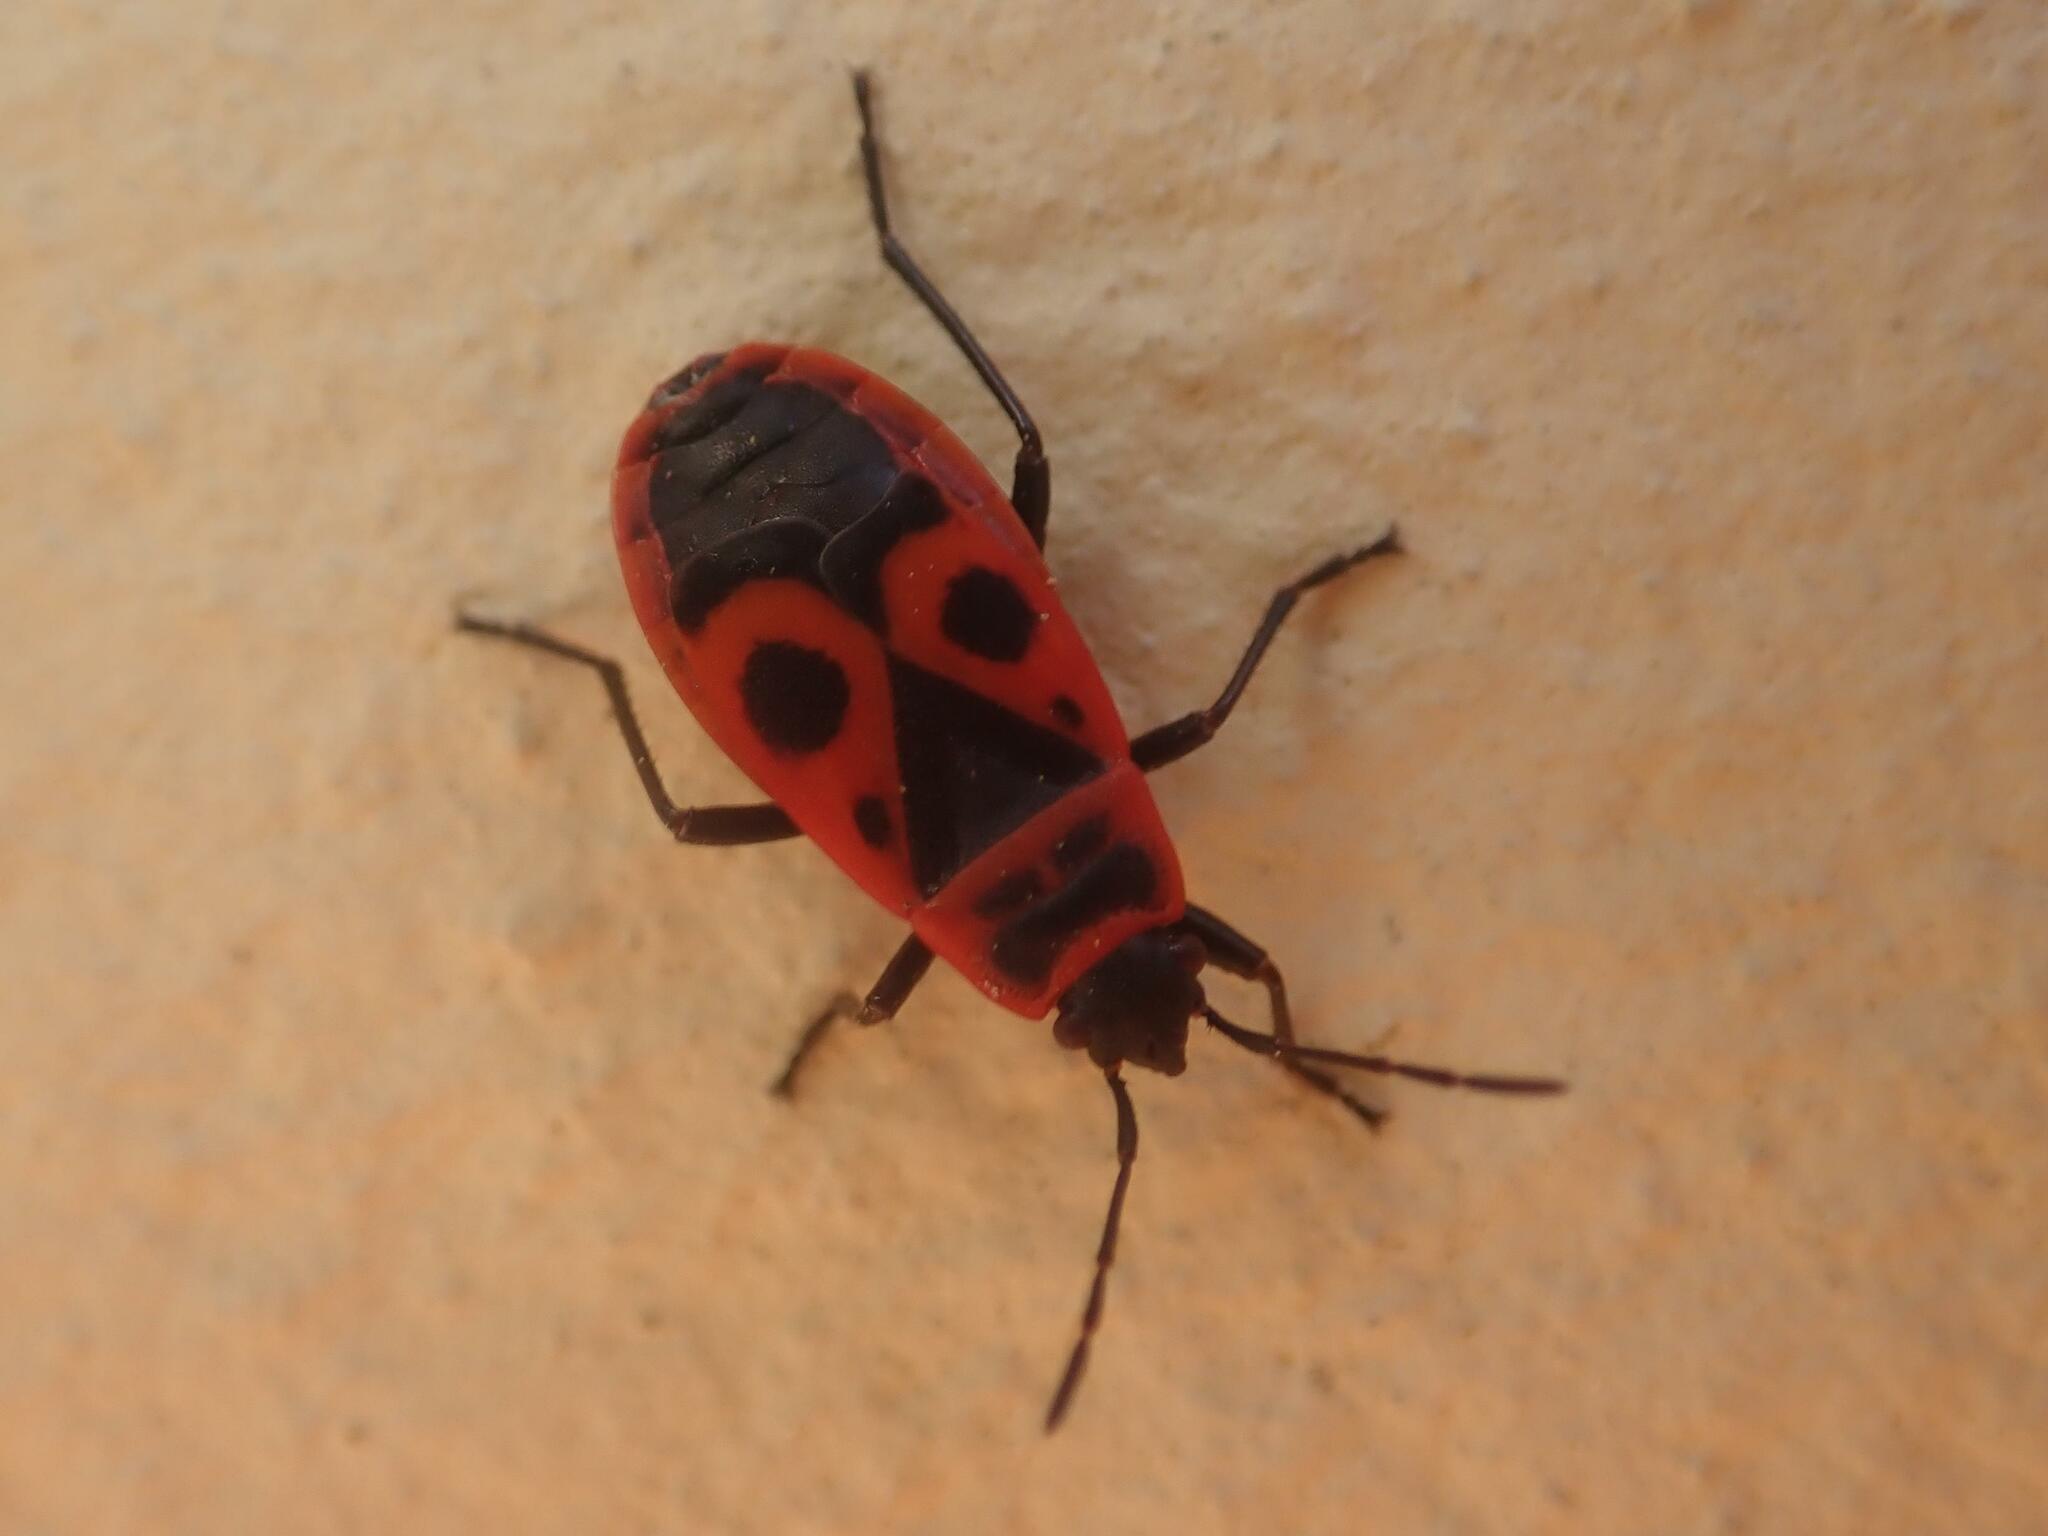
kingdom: Animalia
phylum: Arthropoda
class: Insecta
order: Hemiptera
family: Pyrrhocoridae
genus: Pyrrhocoris
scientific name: Pyrrhocoris apterus
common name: Firebug
